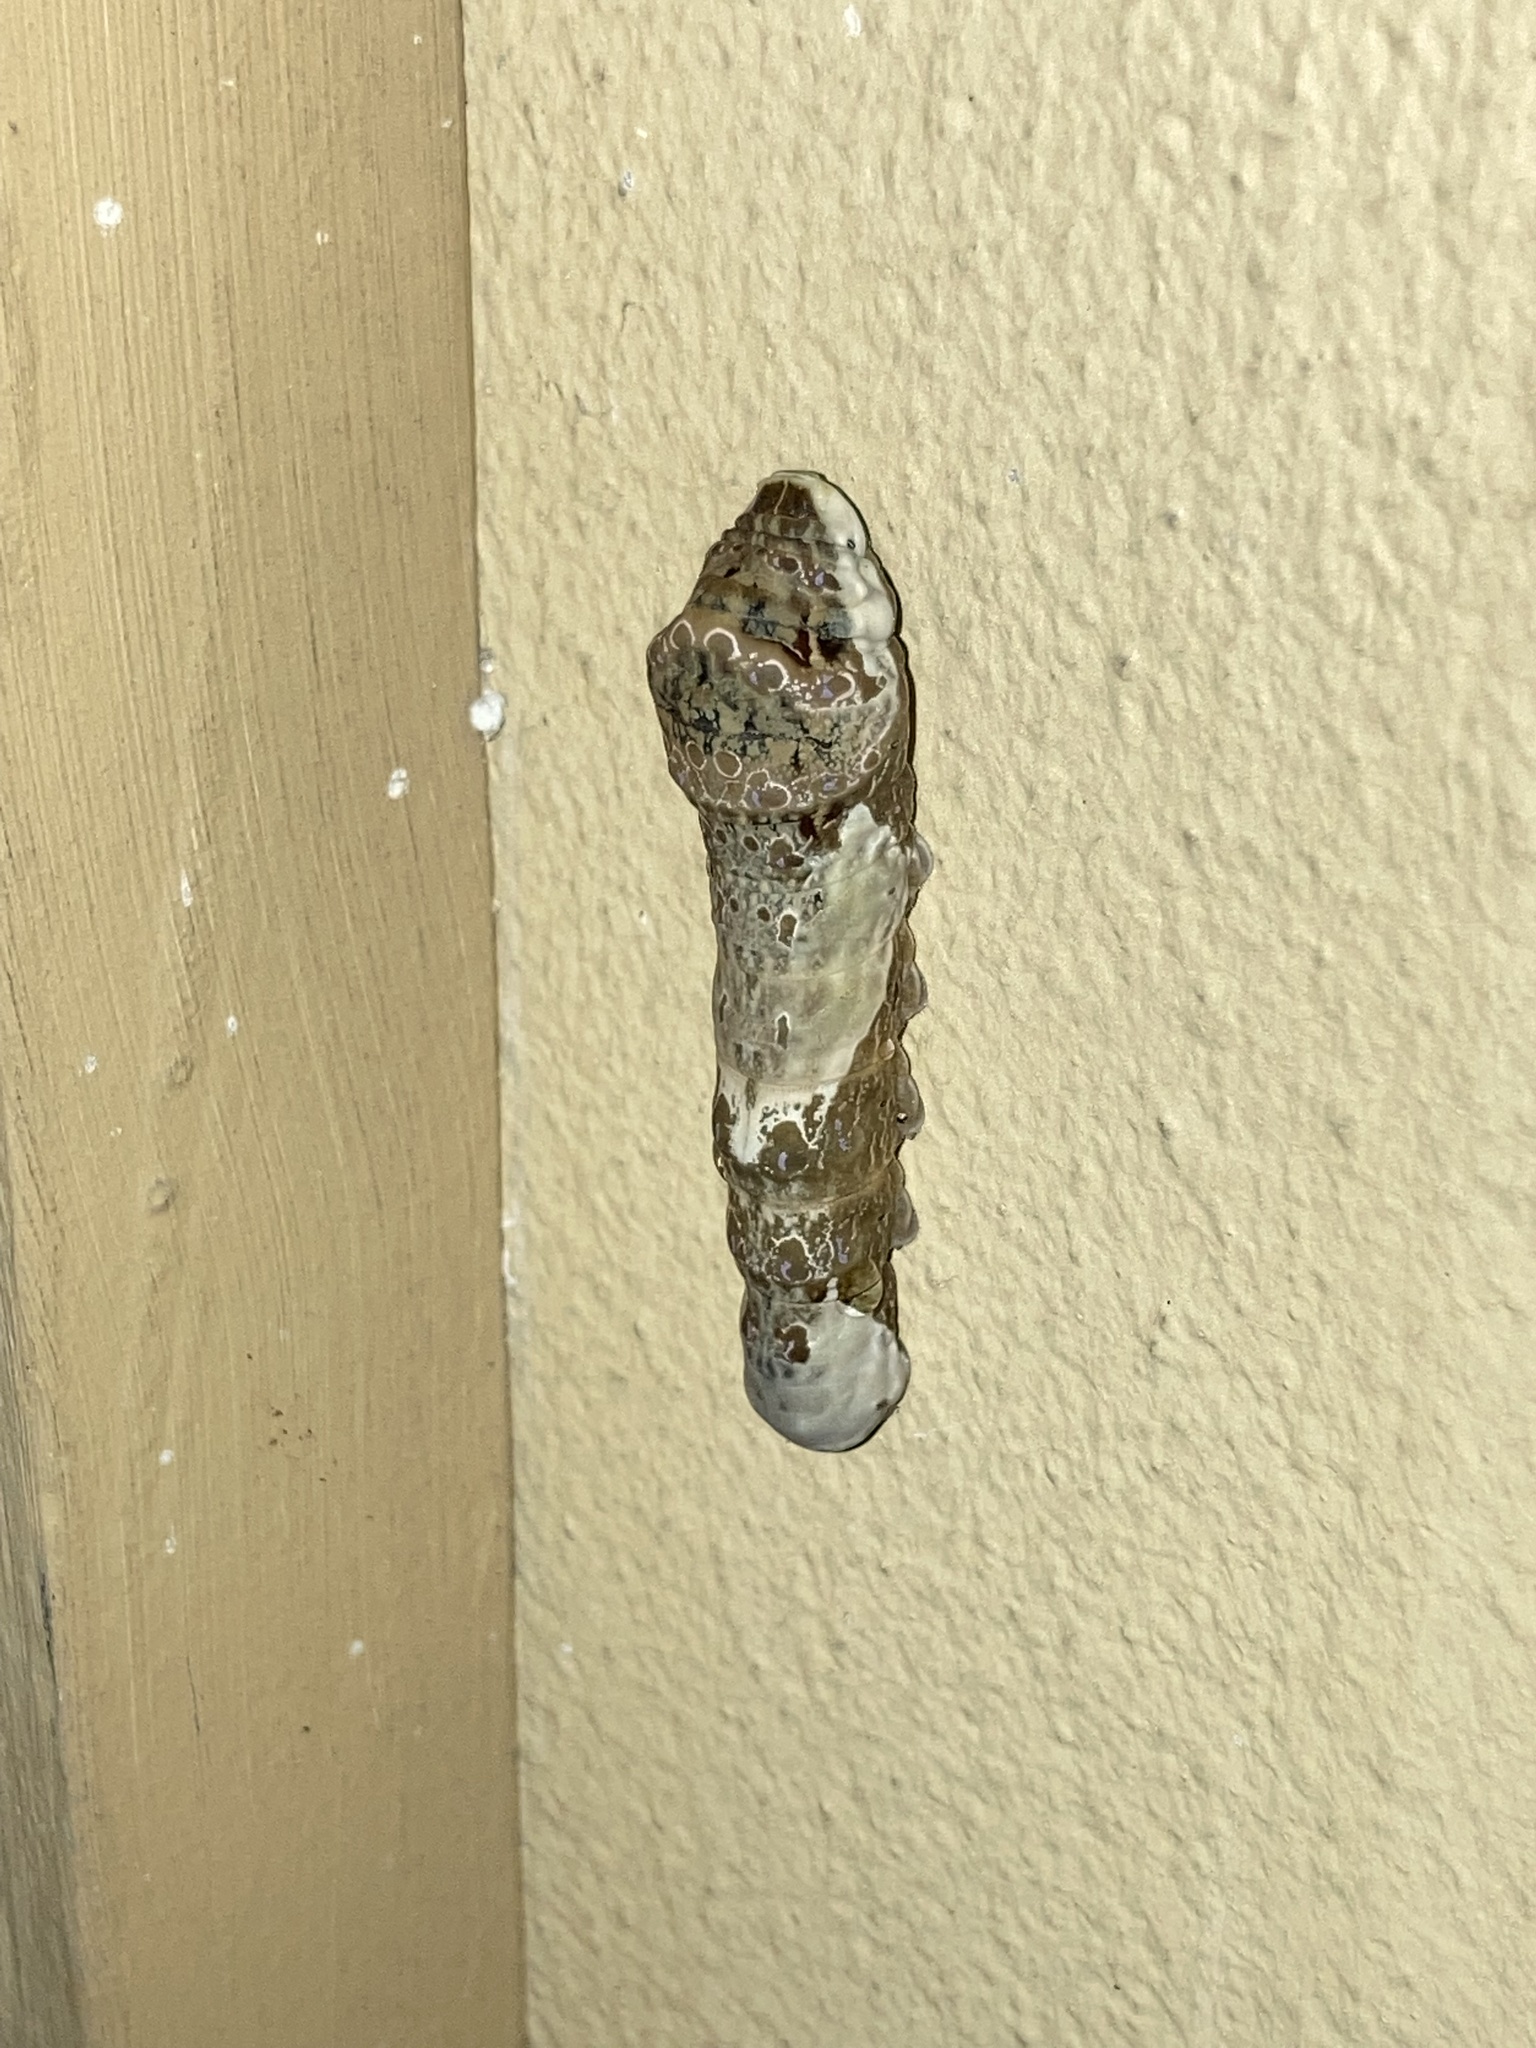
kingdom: Animalia
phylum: Arthropoda
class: Insecta
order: Lepidoptera
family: Papilionidae
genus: Papilio
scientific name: Papilio cresphontes
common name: Giant swallowtail
